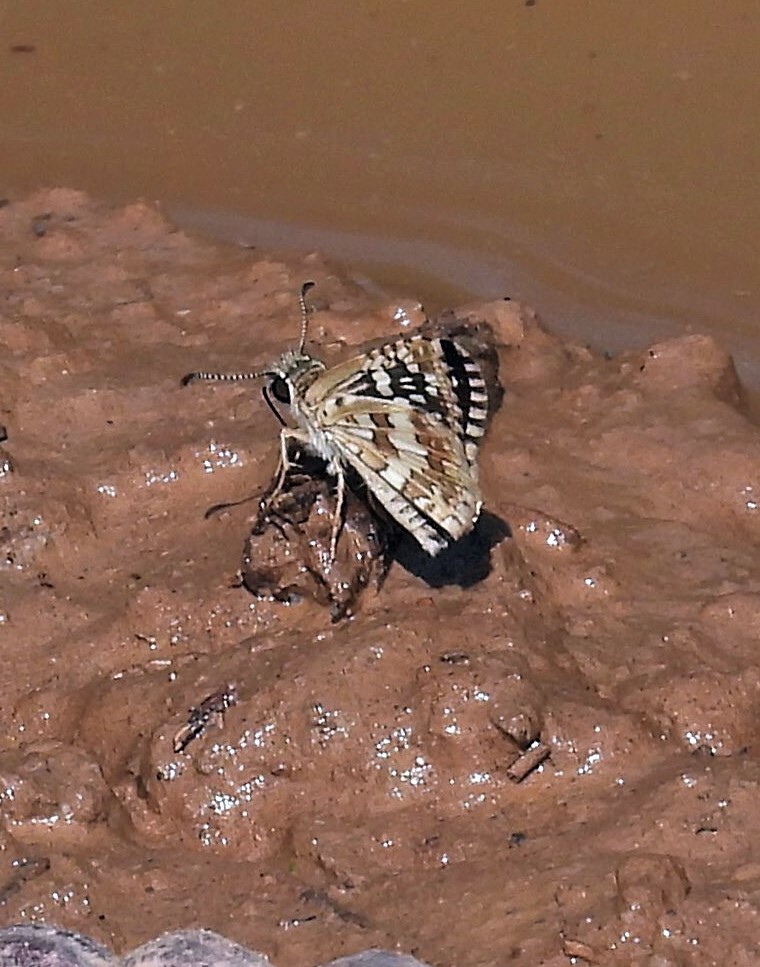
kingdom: Animalia
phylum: Arthropoda
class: Insecta
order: Lepidoptera
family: Hesperiidae
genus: Burnsius
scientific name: Burnsius orcynoides
